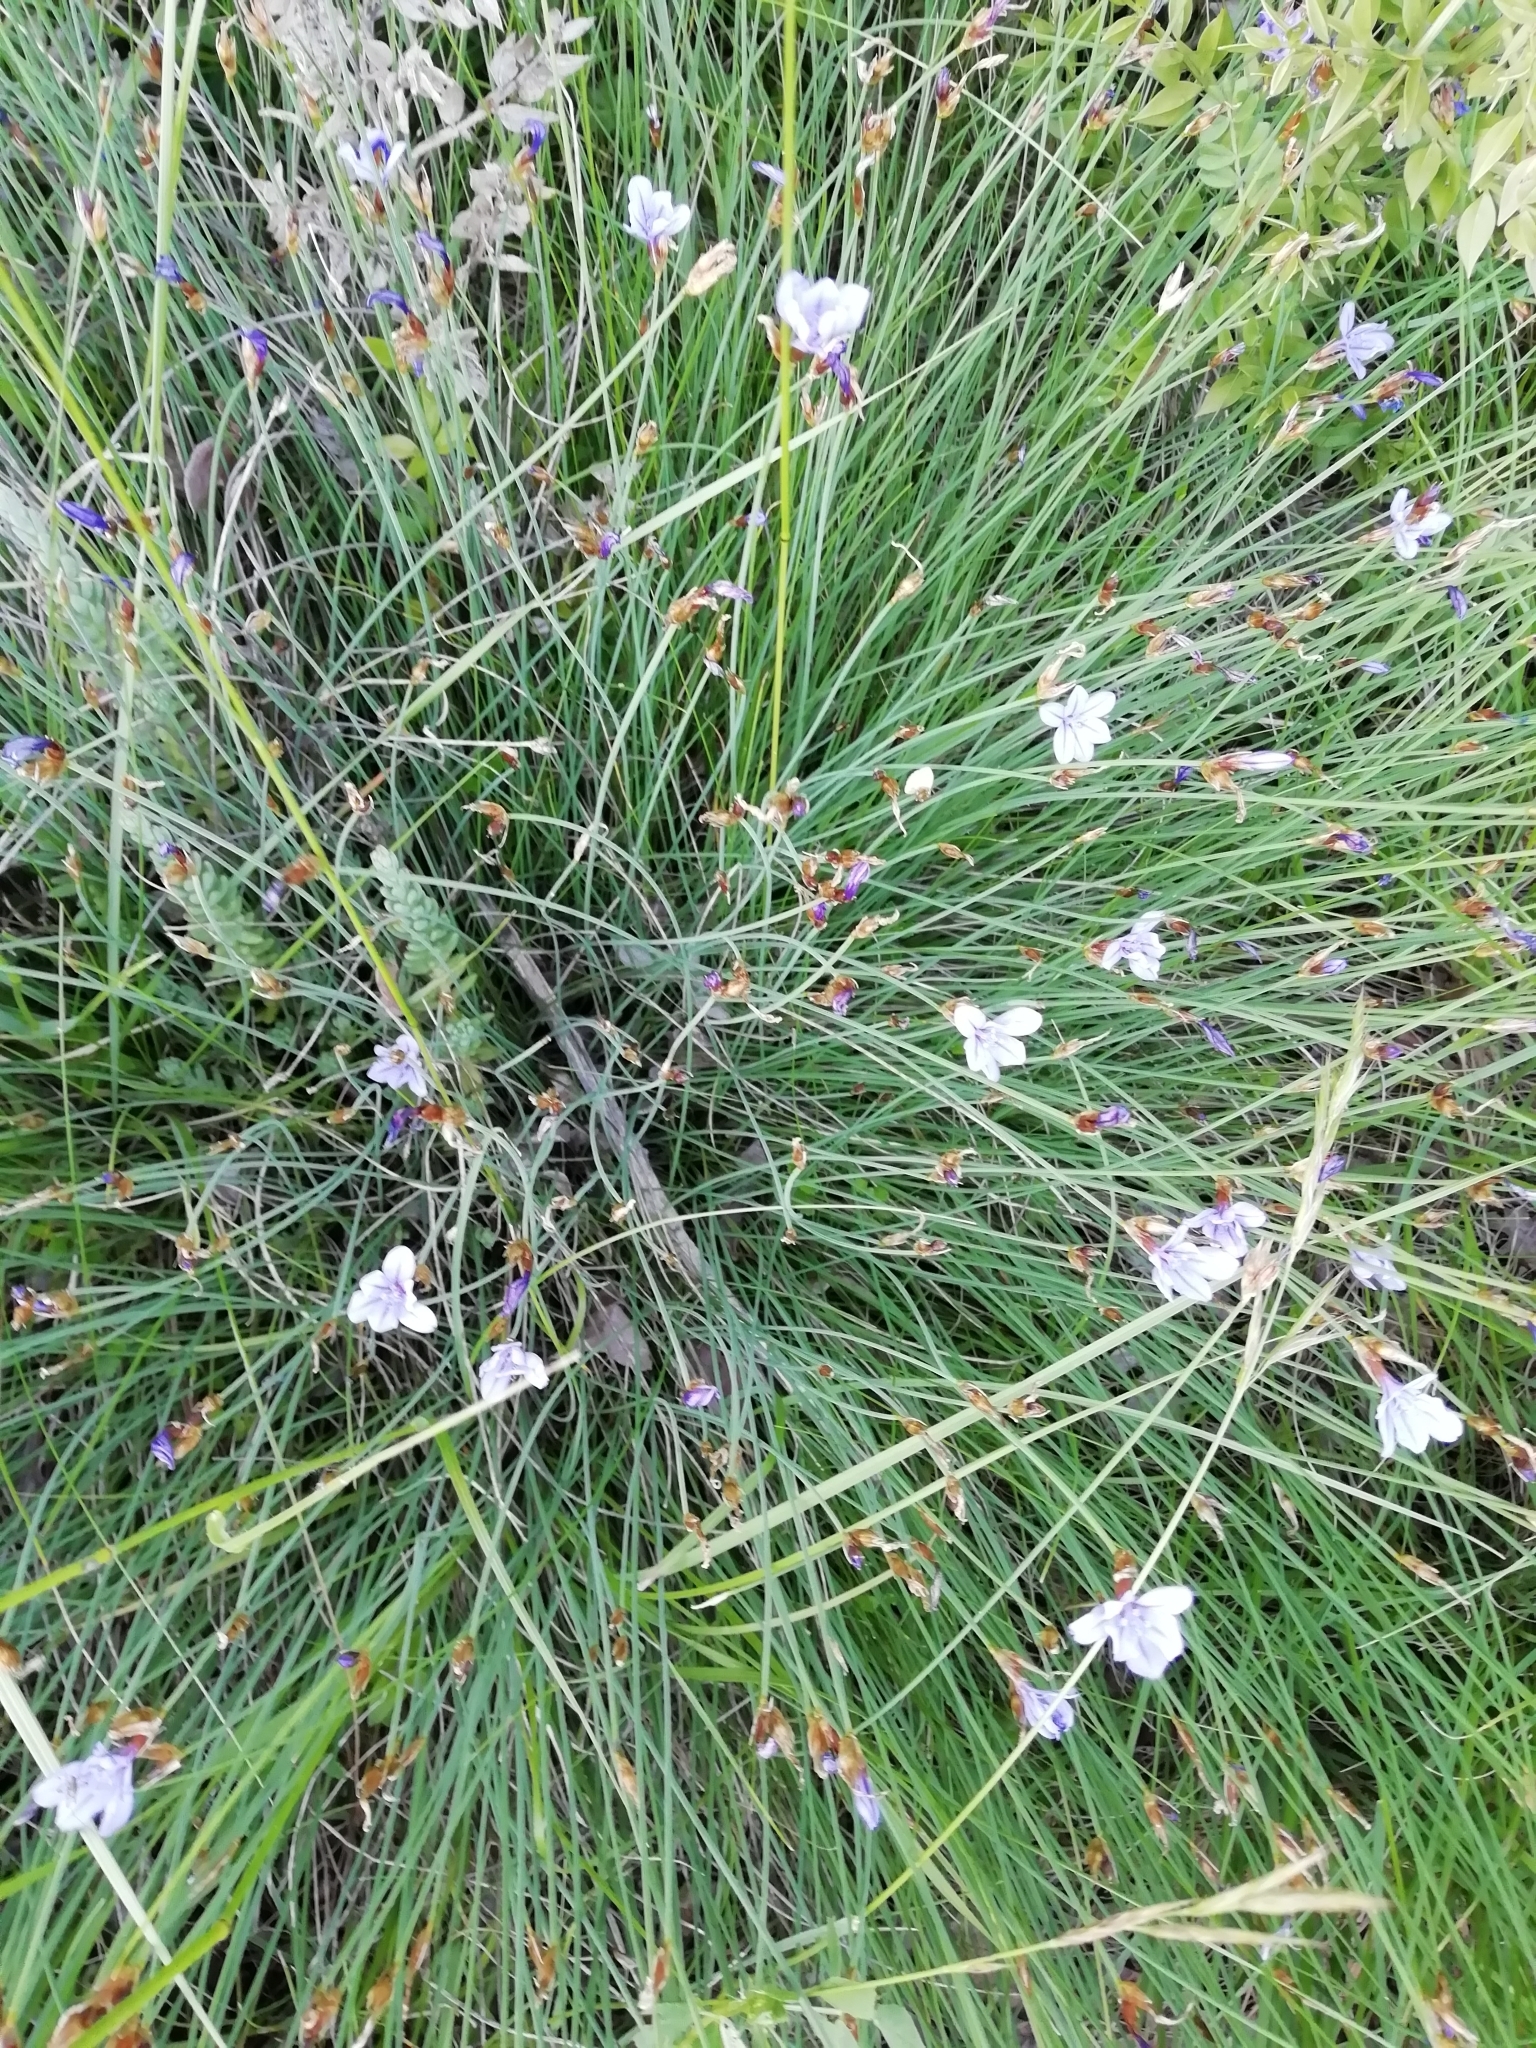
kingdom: Plantae
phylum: Tracheophyta
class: Liliopsida
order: Asparagales
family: Asparagaceae
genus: Aphyllanthes
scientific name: Aphyllanthes monspeliensis
